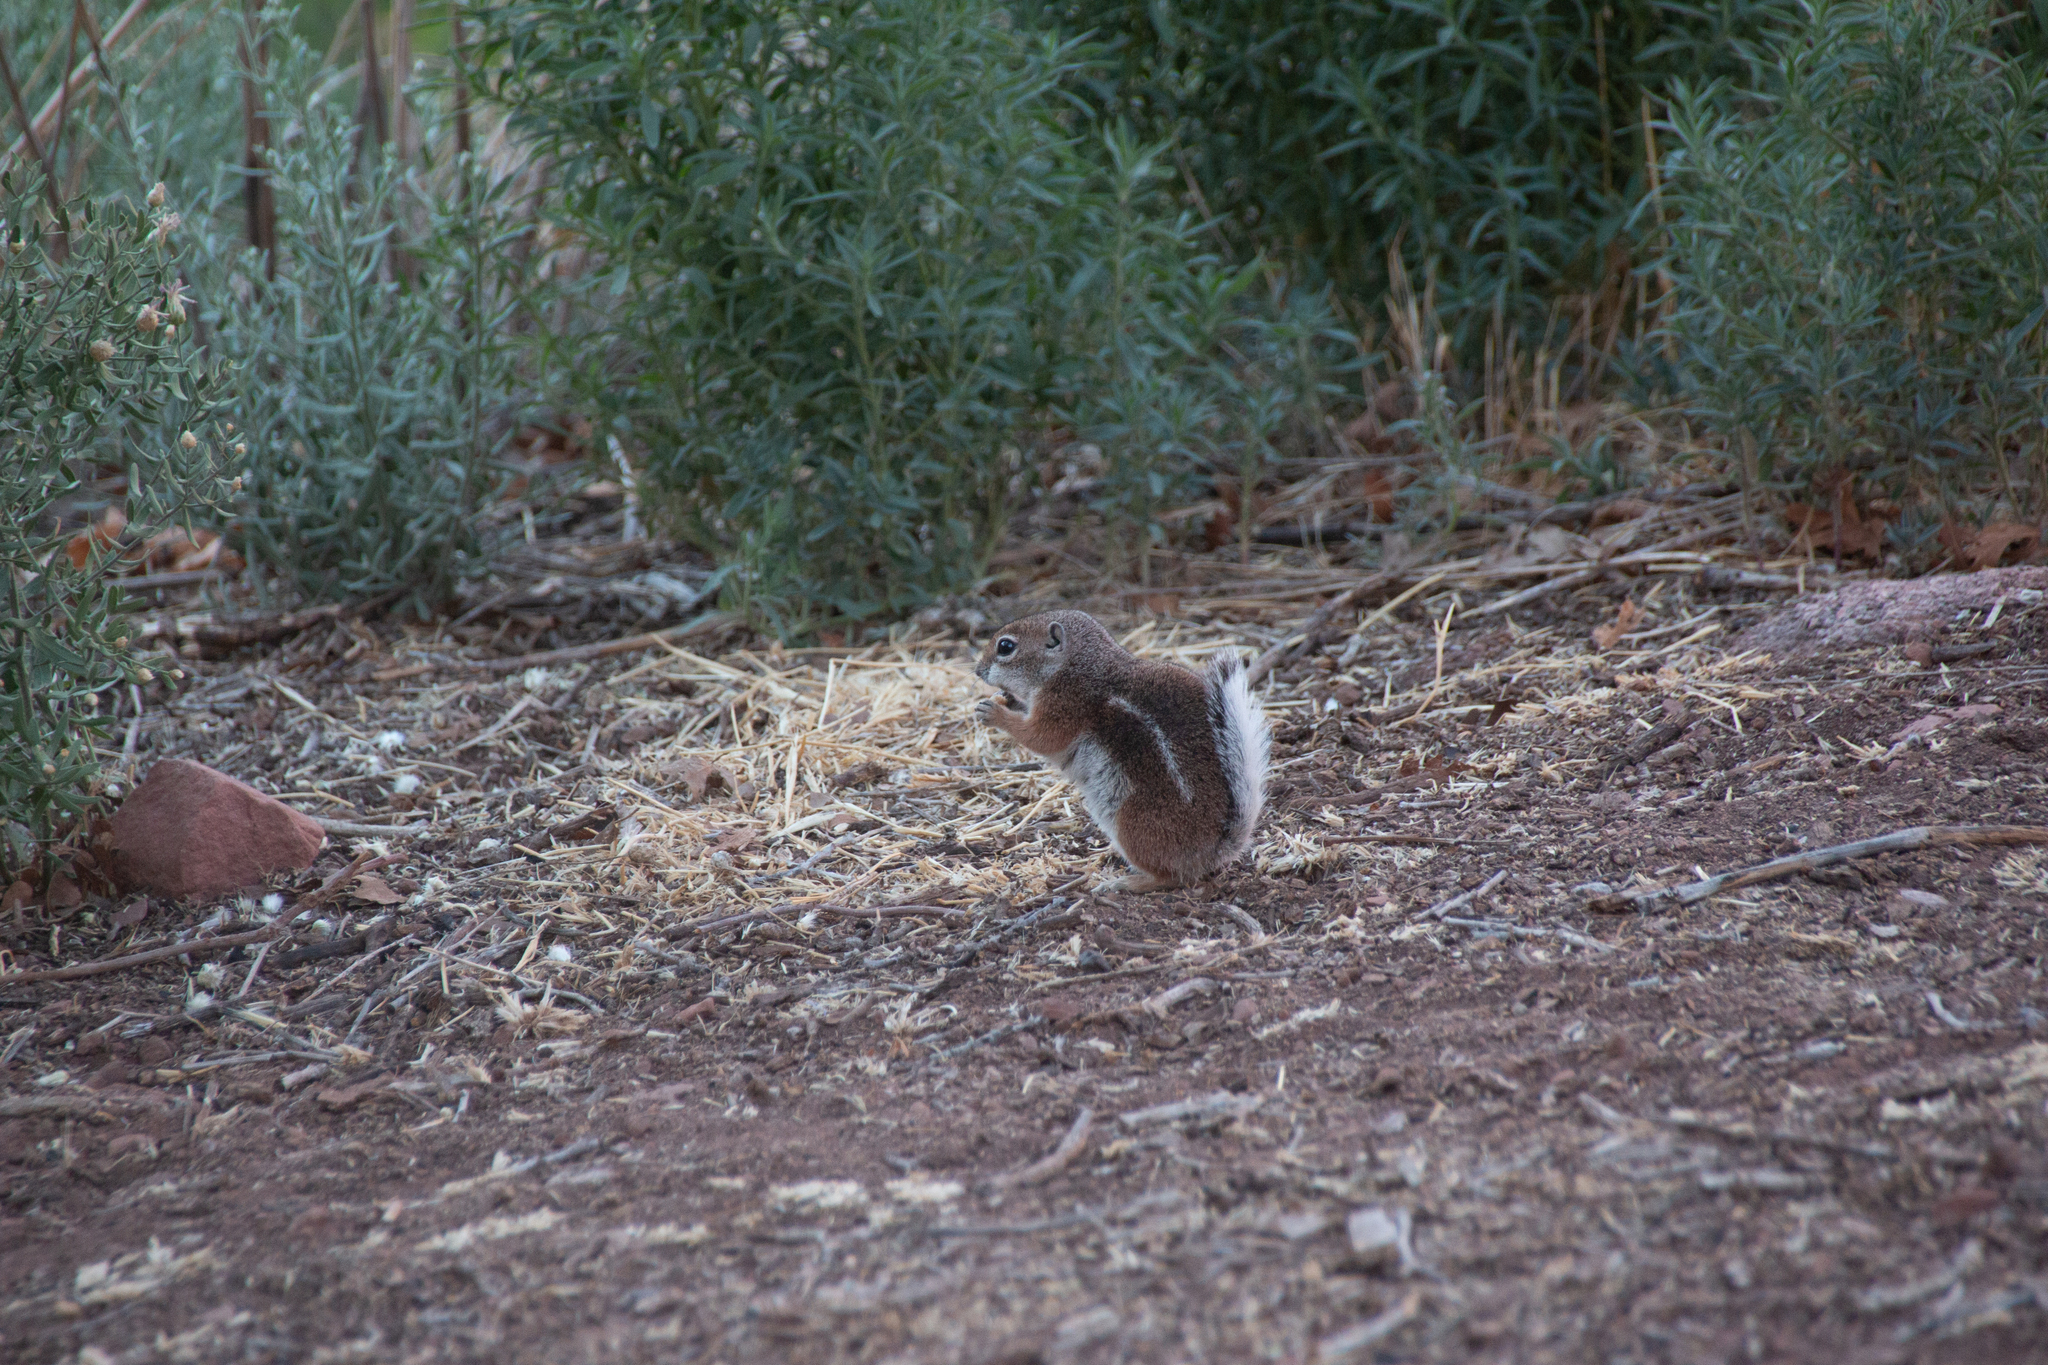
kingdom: Animalia
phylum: Chordata
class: Mammalia
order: Rodentia
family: Sciuridae
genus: Ammospermophilus
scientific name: Ammospermophilus leucurus
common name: White-tailed antelope squirrel
